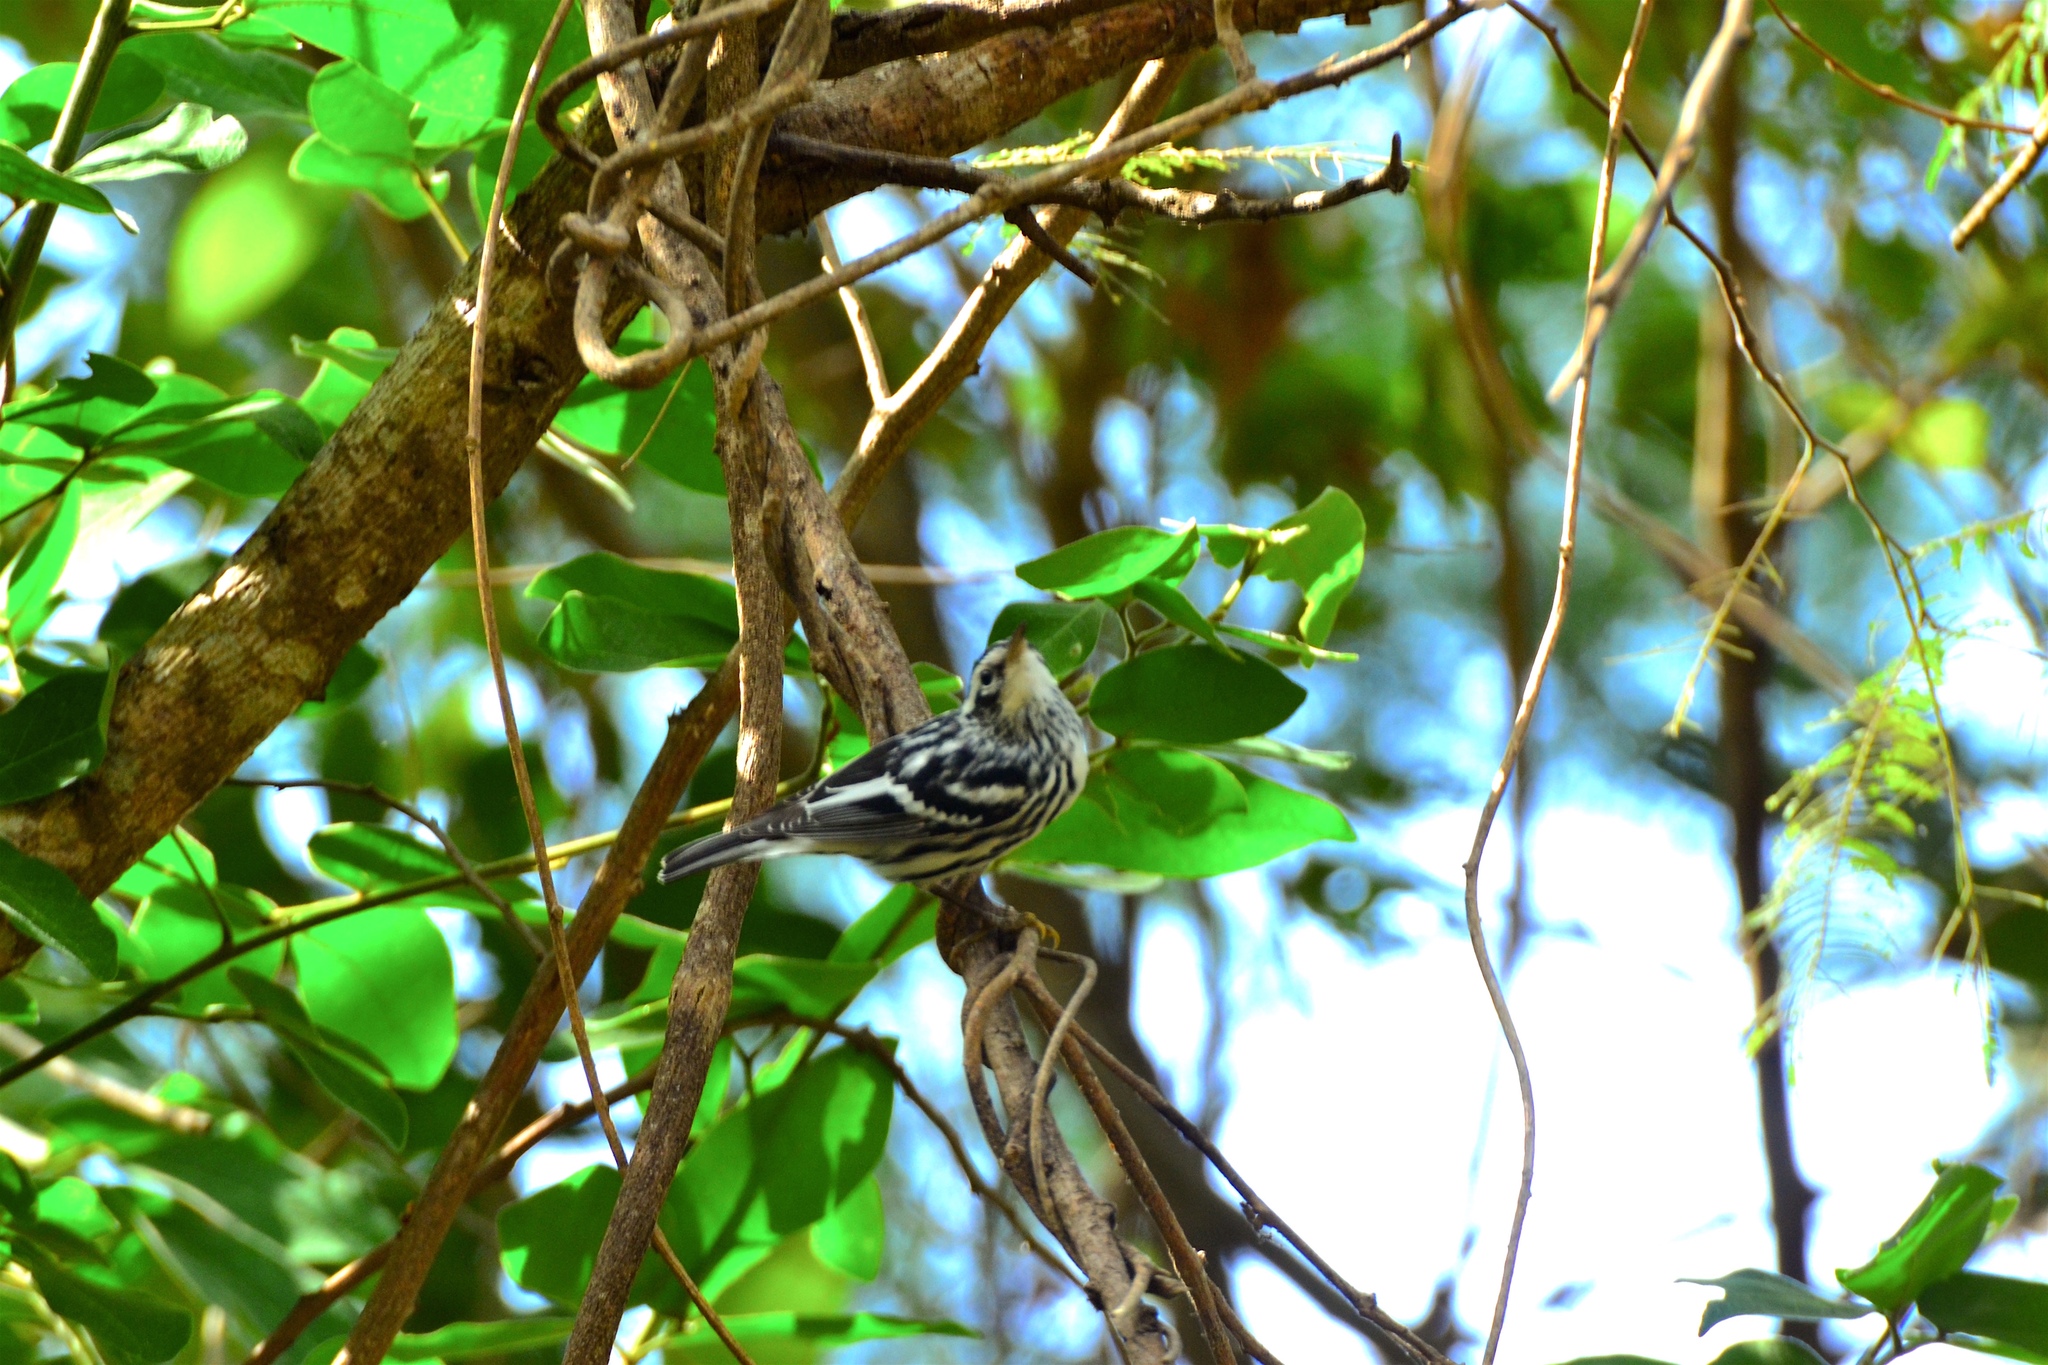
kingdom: Animalia
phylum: Chordata
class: Aves
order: Passeriformes
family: Parulidae
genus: Mniotilta
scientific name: Mniotilta varia
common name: Black-and-white warbler
